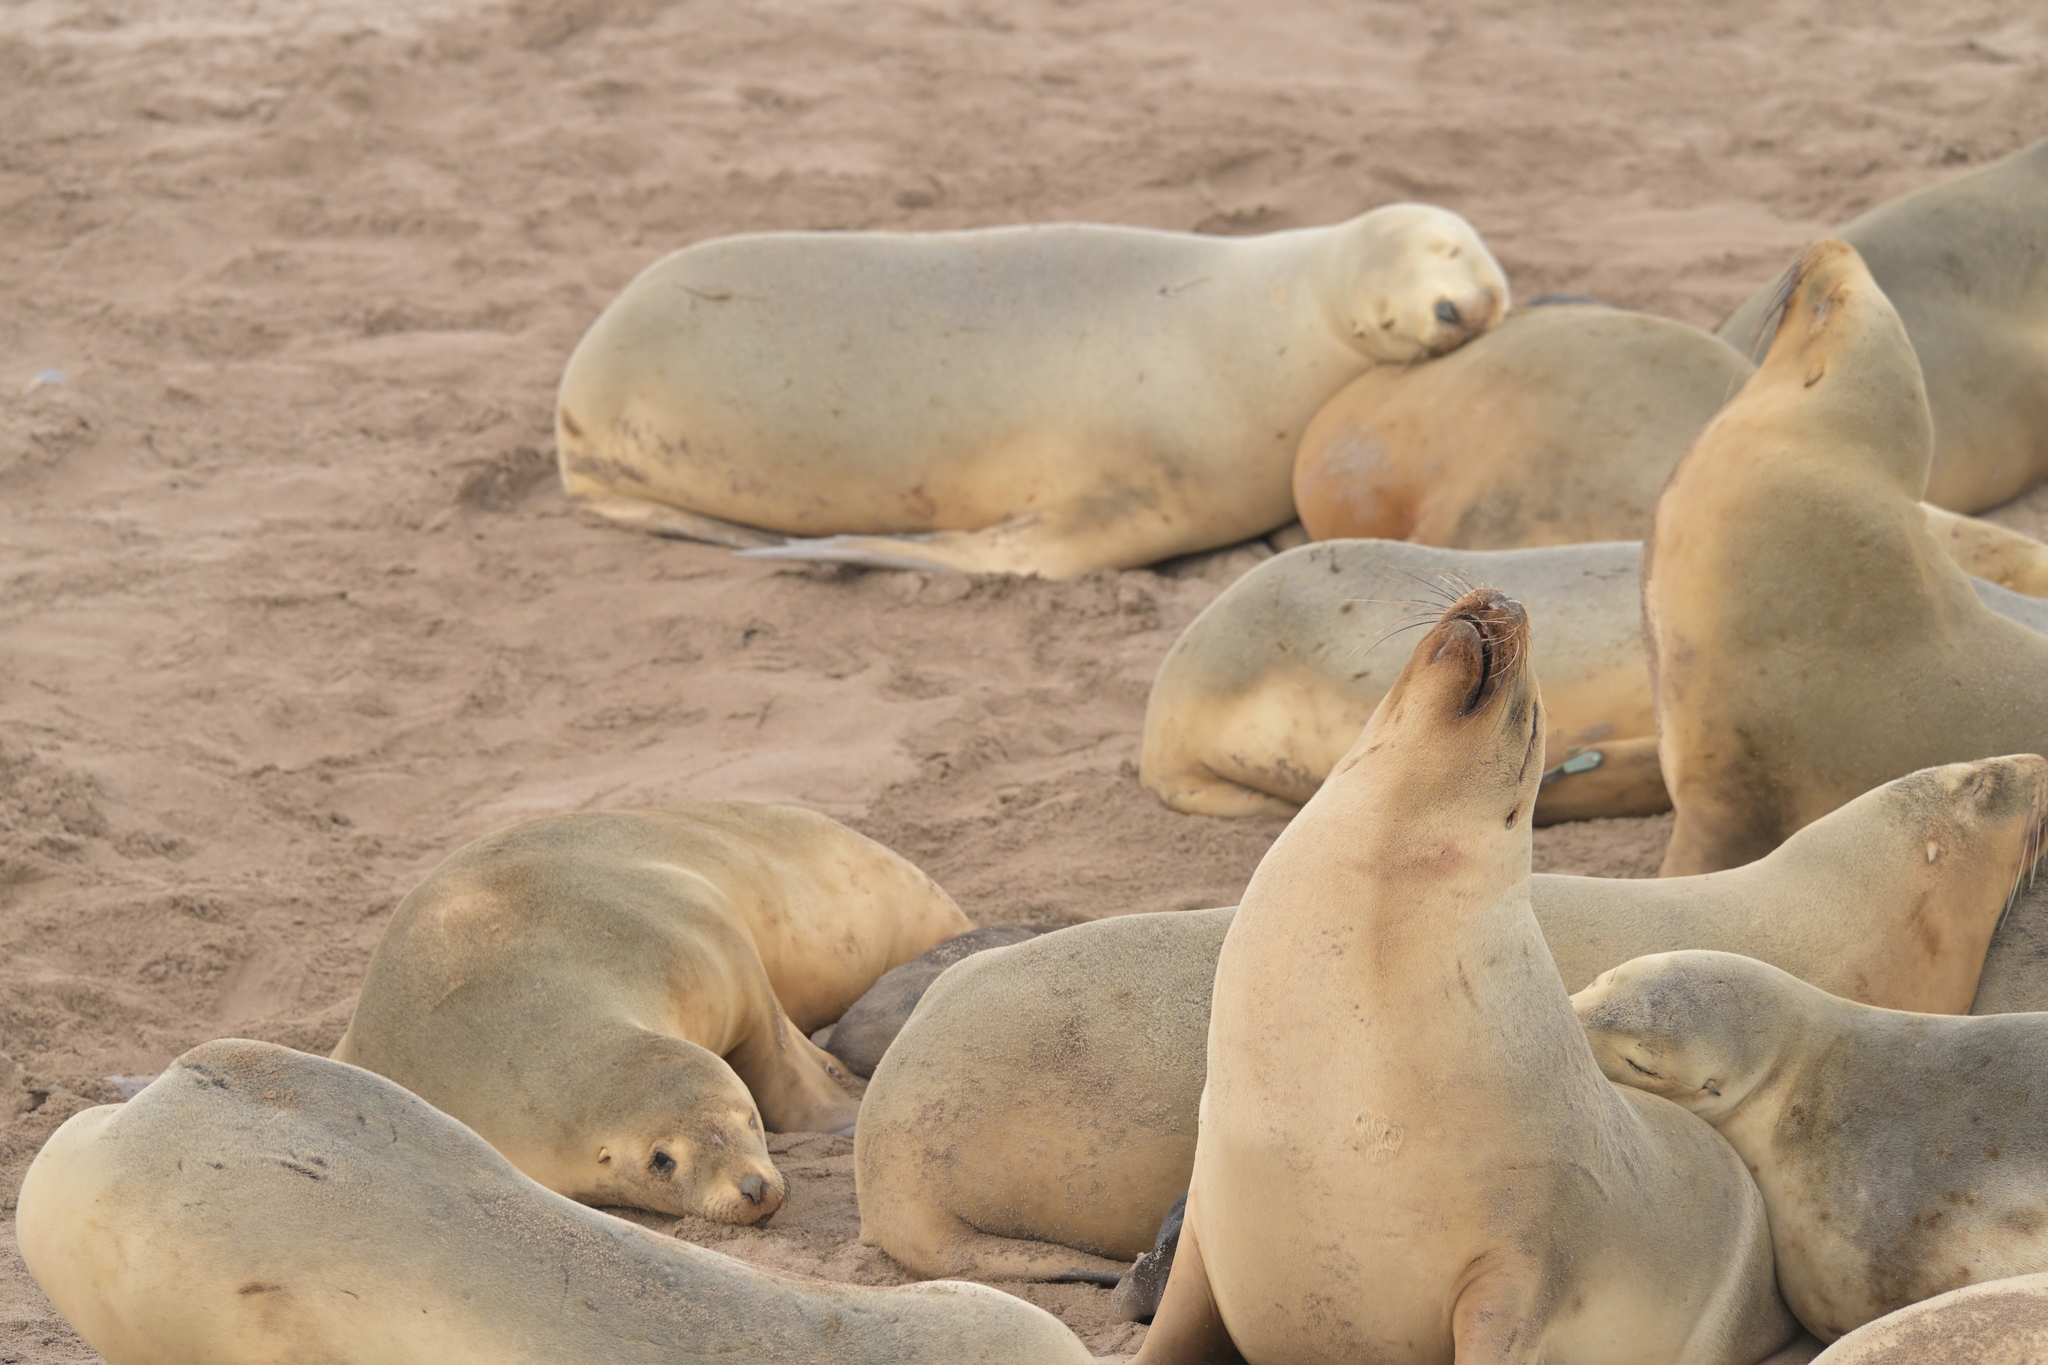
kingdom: Animalia
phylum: Chordata
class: Mammalia
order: Carnivora
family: Otariidae
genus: Phocarctos
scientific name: Phocarctos hookeri
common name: New zealand sea lion
